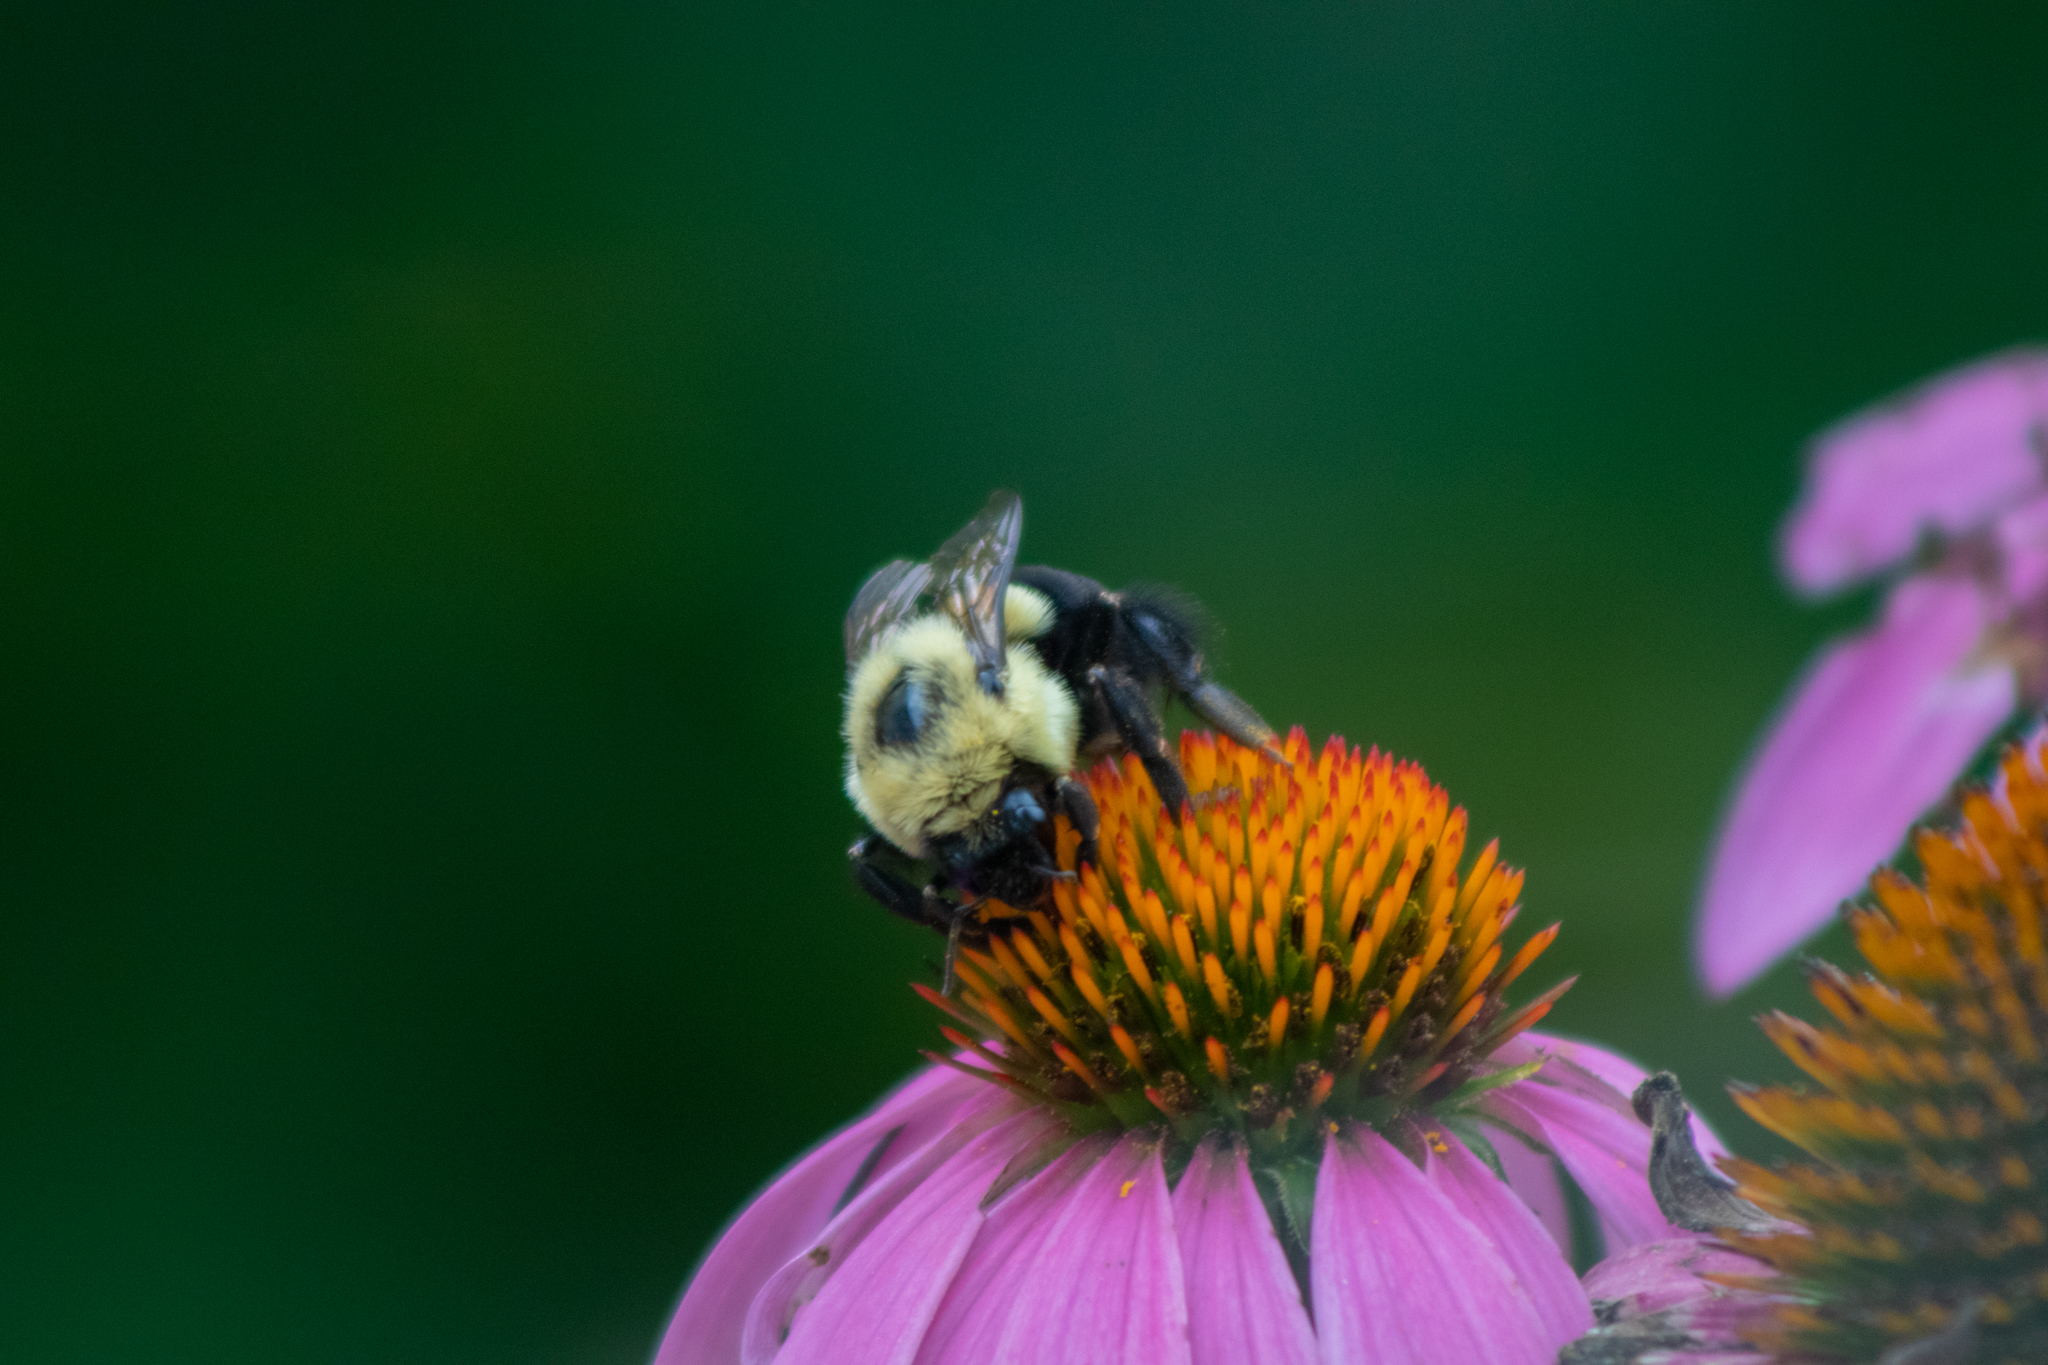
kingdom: Animalia
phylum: Arthropoda
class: Insecta
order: Hymenoptera
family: Apidae
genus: Bombus
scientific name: Bombus impatiens
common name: Common eastern bumble bee
